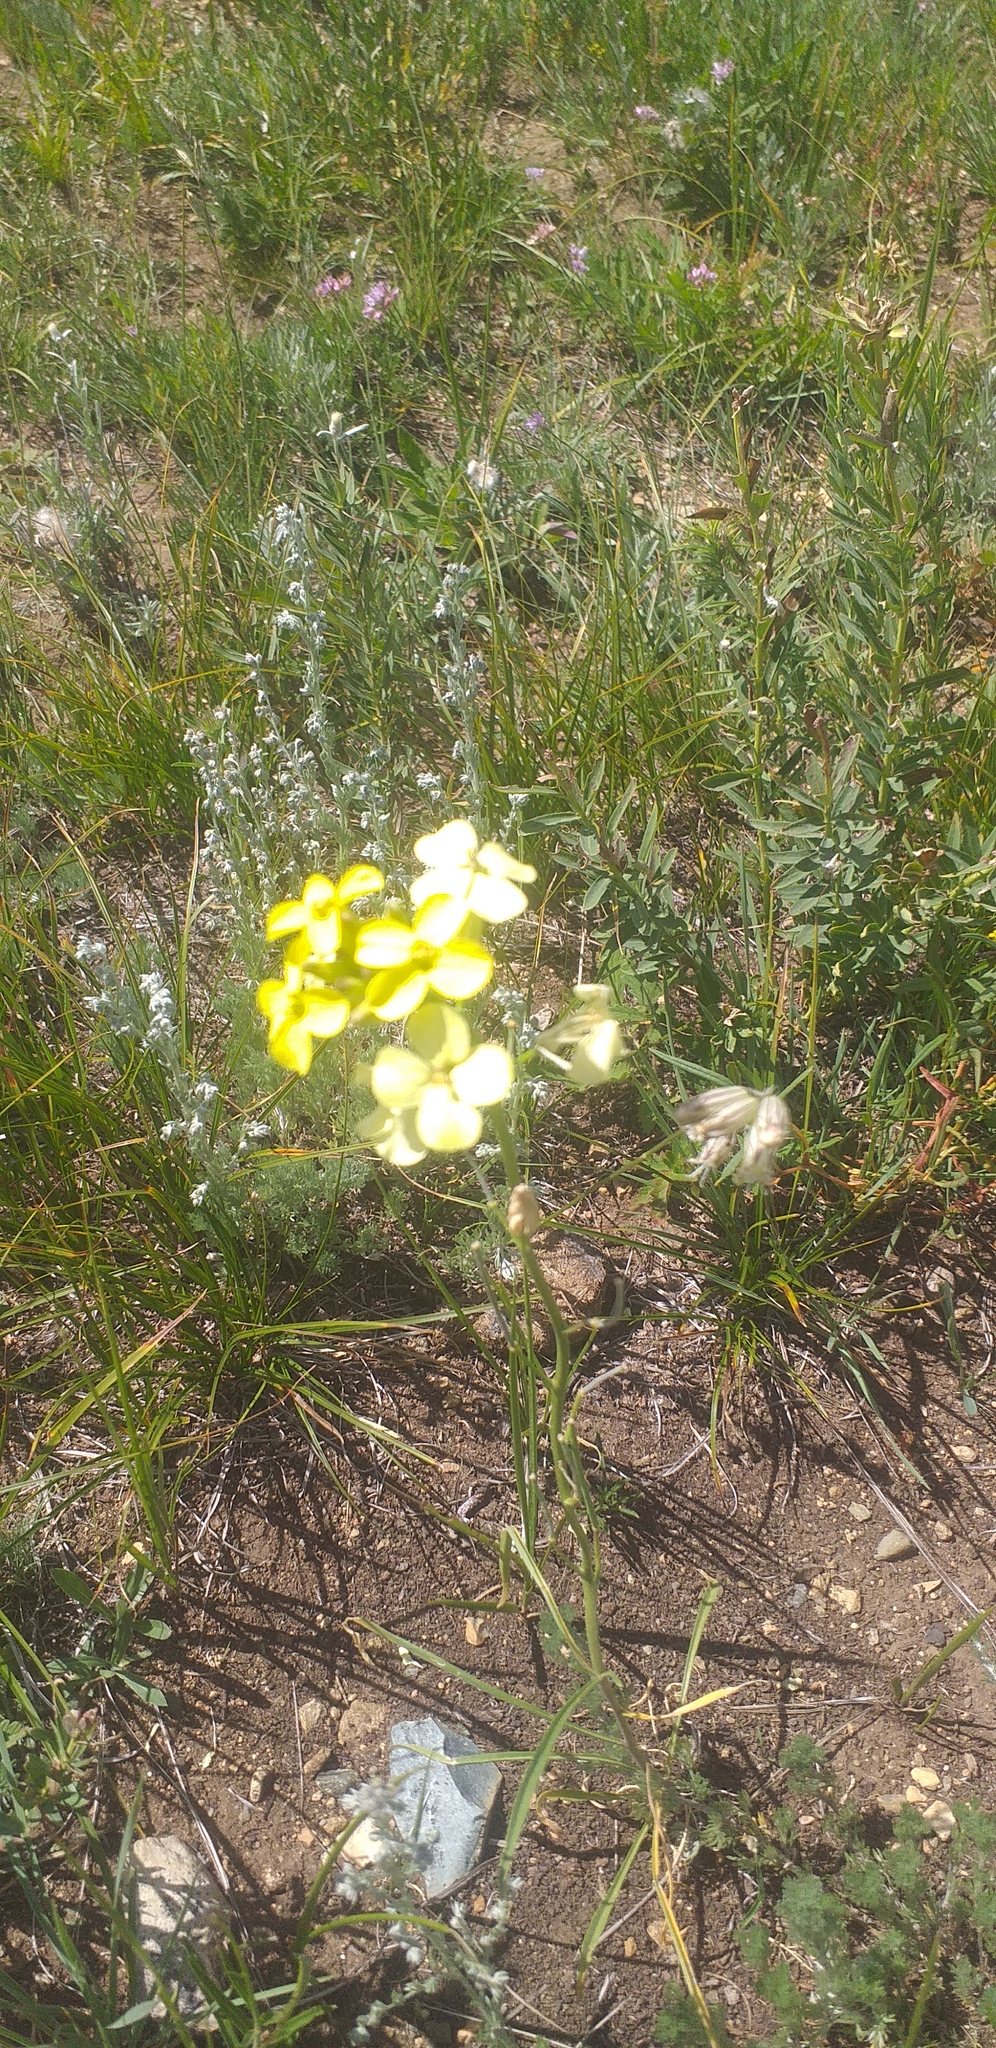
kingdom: Plantae
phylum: Tracheophyta
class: Magnoliopsida
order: Brassicales
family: Brassicaceae
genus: Erysimum
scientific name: Erysimum altaicum
